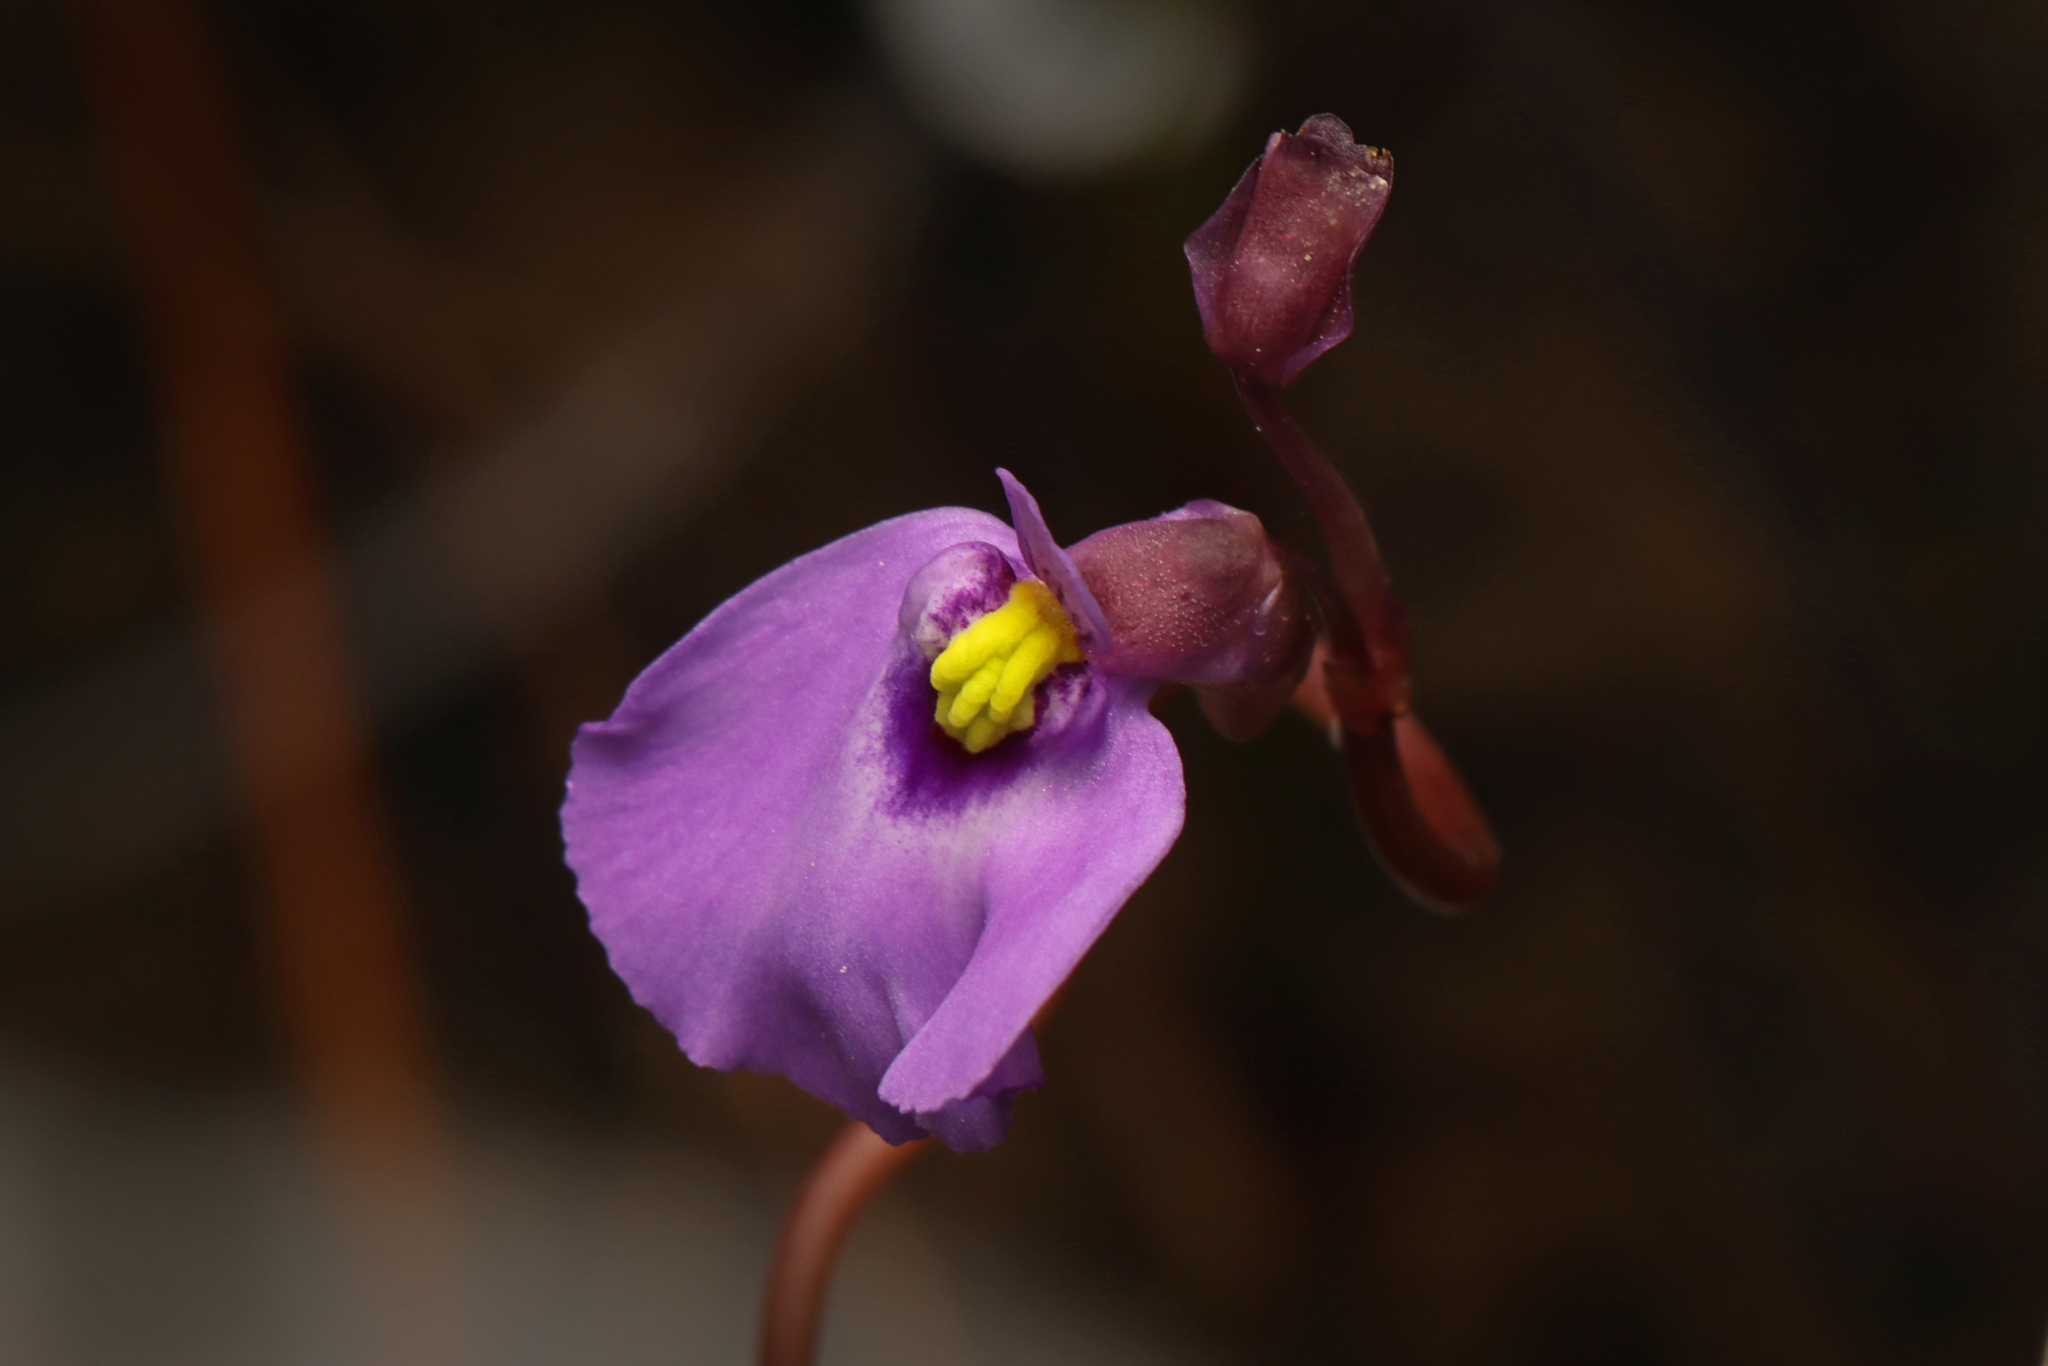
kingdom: Plantae
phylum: Tracheophyta
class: Magnoliopsida
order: Lamiales
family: Lentibulariaceae
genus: Utricularia
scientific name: Utricularia barkeri
